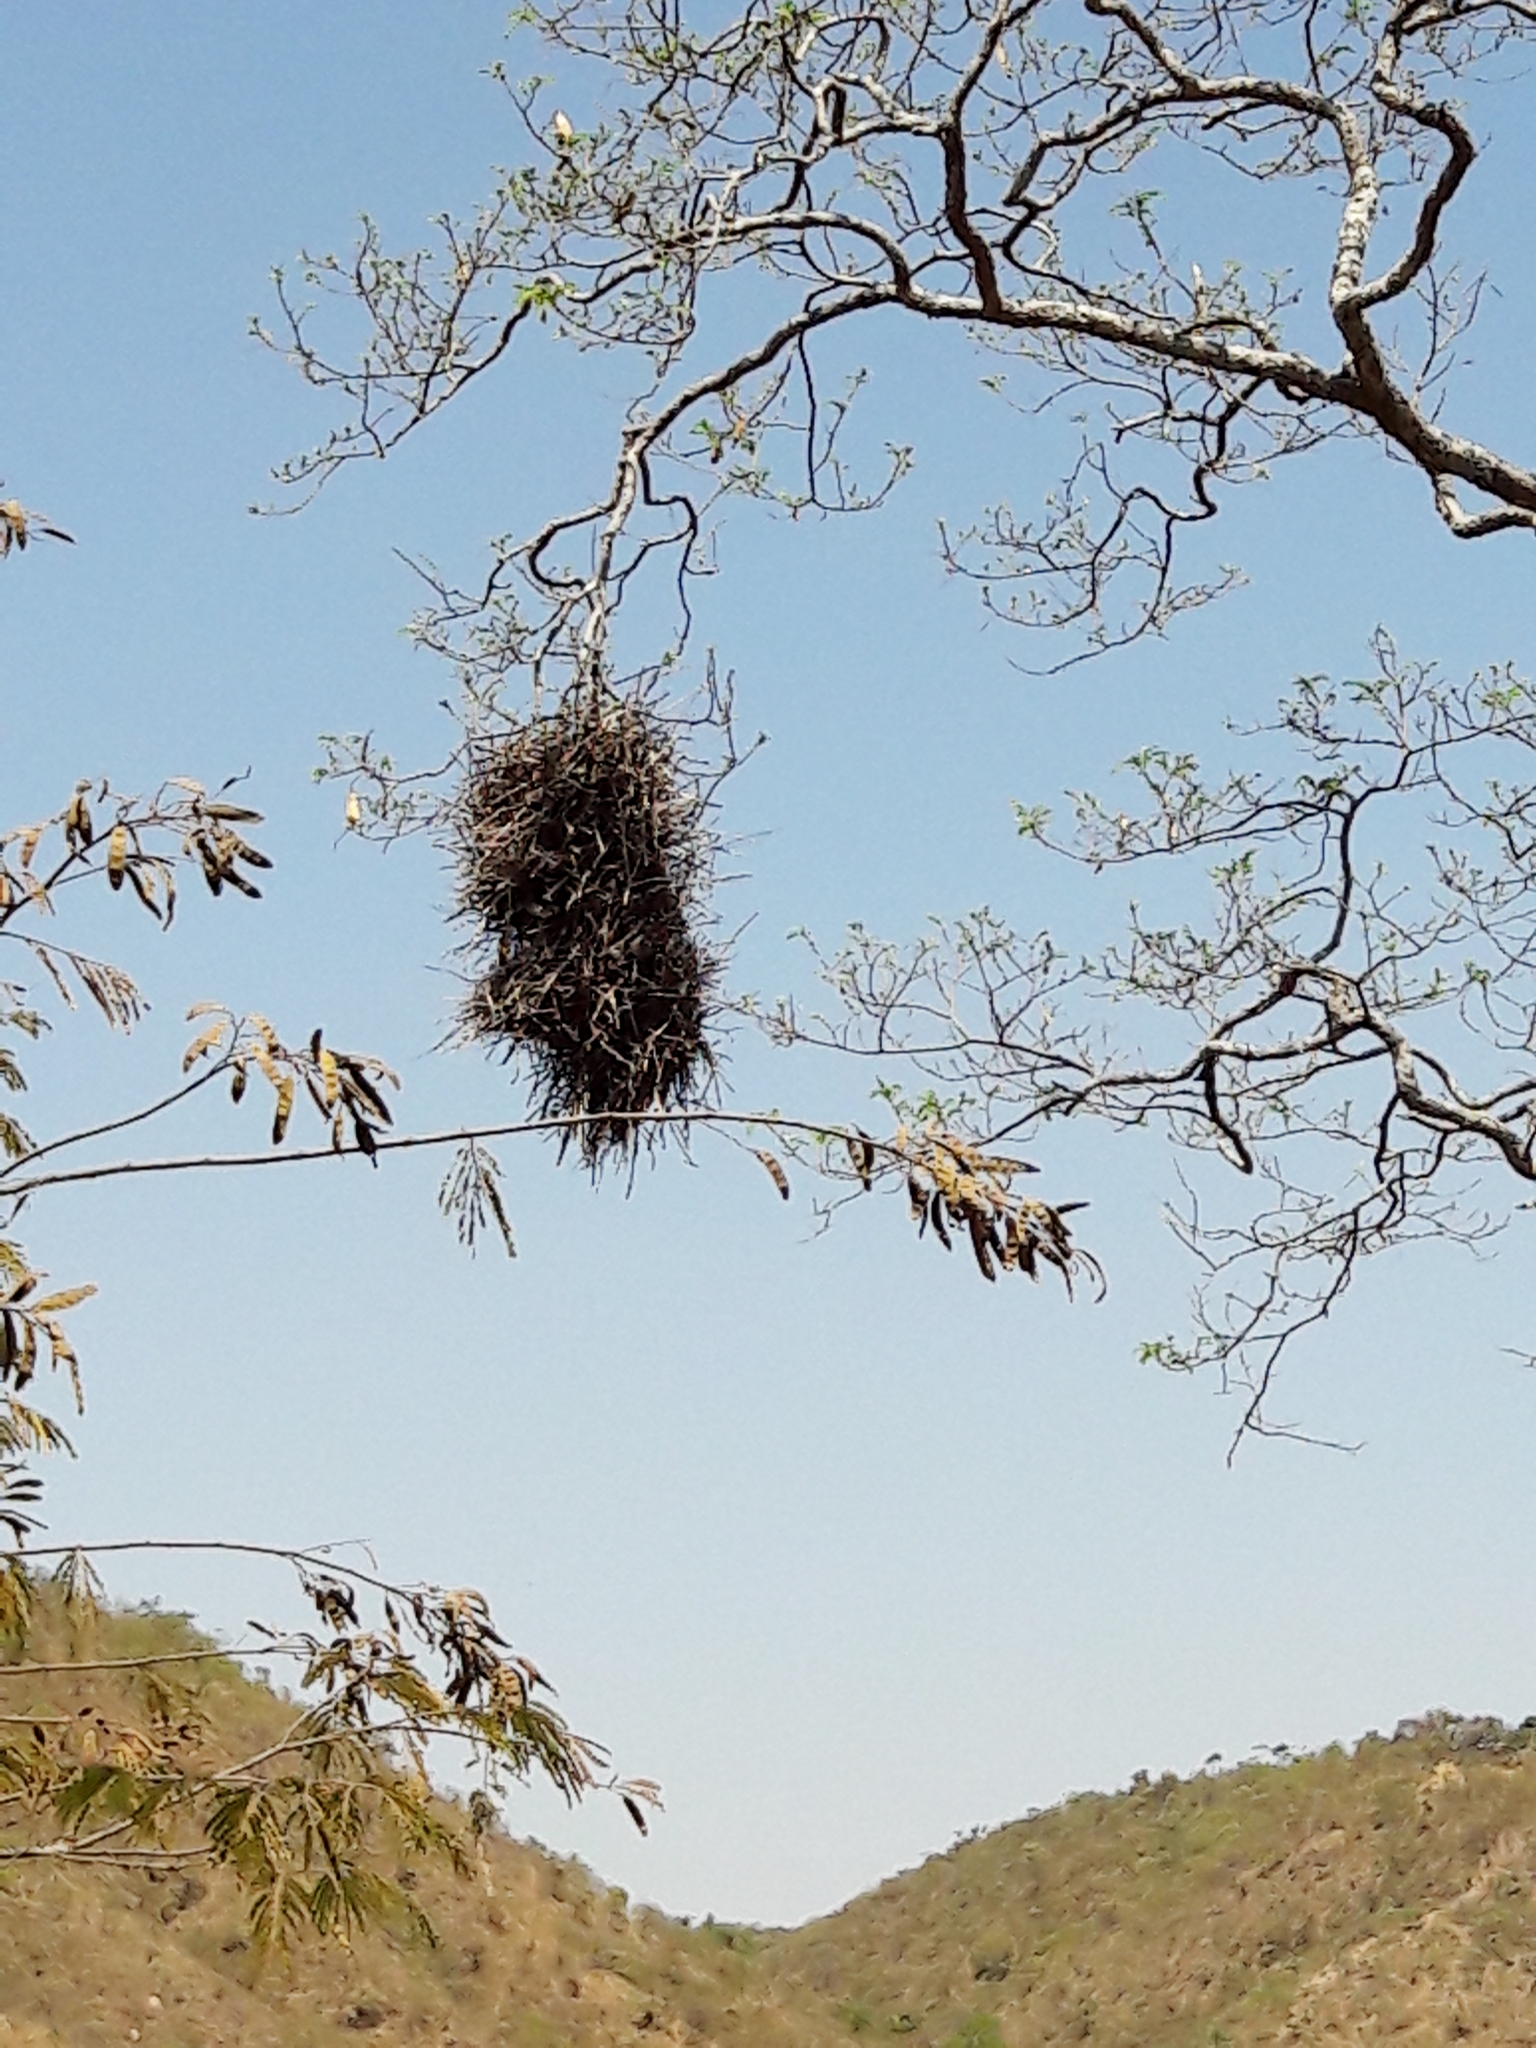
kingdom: Animalia
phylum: Chordata
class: Aves
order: Passeriformes
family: Furnariidae
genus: Phacellodomus
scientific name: Phacellodomus rufifrons
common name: Rufous-fronted thornbird
